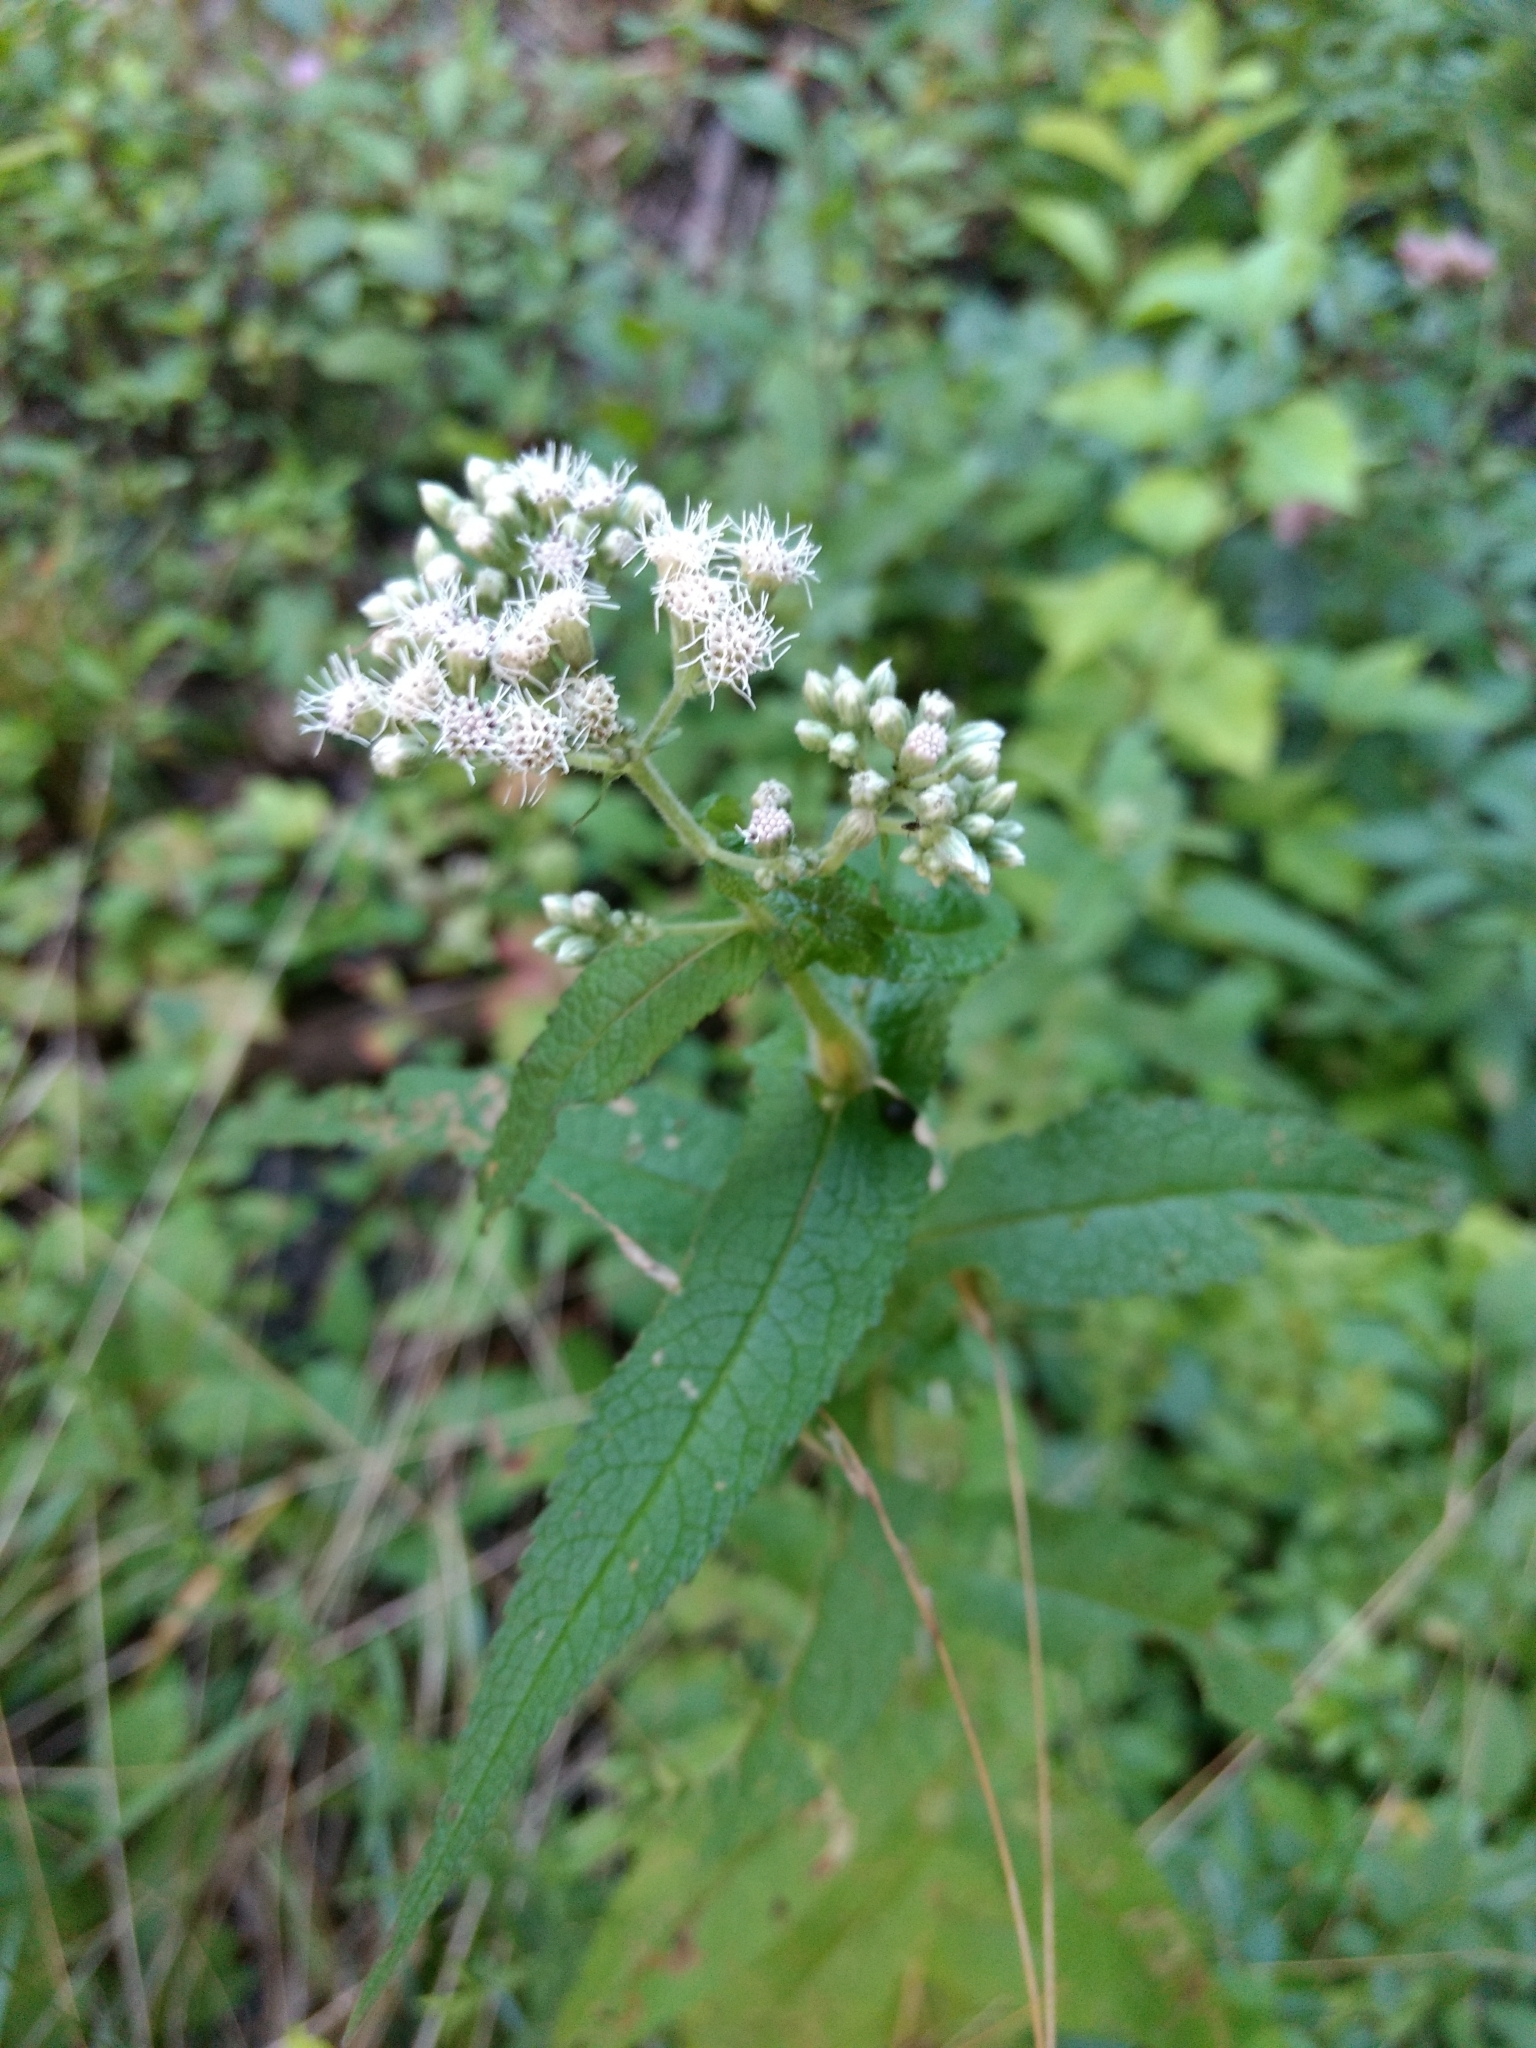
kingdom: Plantae
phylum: Tracheophyta
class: Magnoliopsida
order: Asterales
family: Asteraceae
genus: Eupatorium
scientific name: Eupatorium perfoliatum
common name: Boneset
